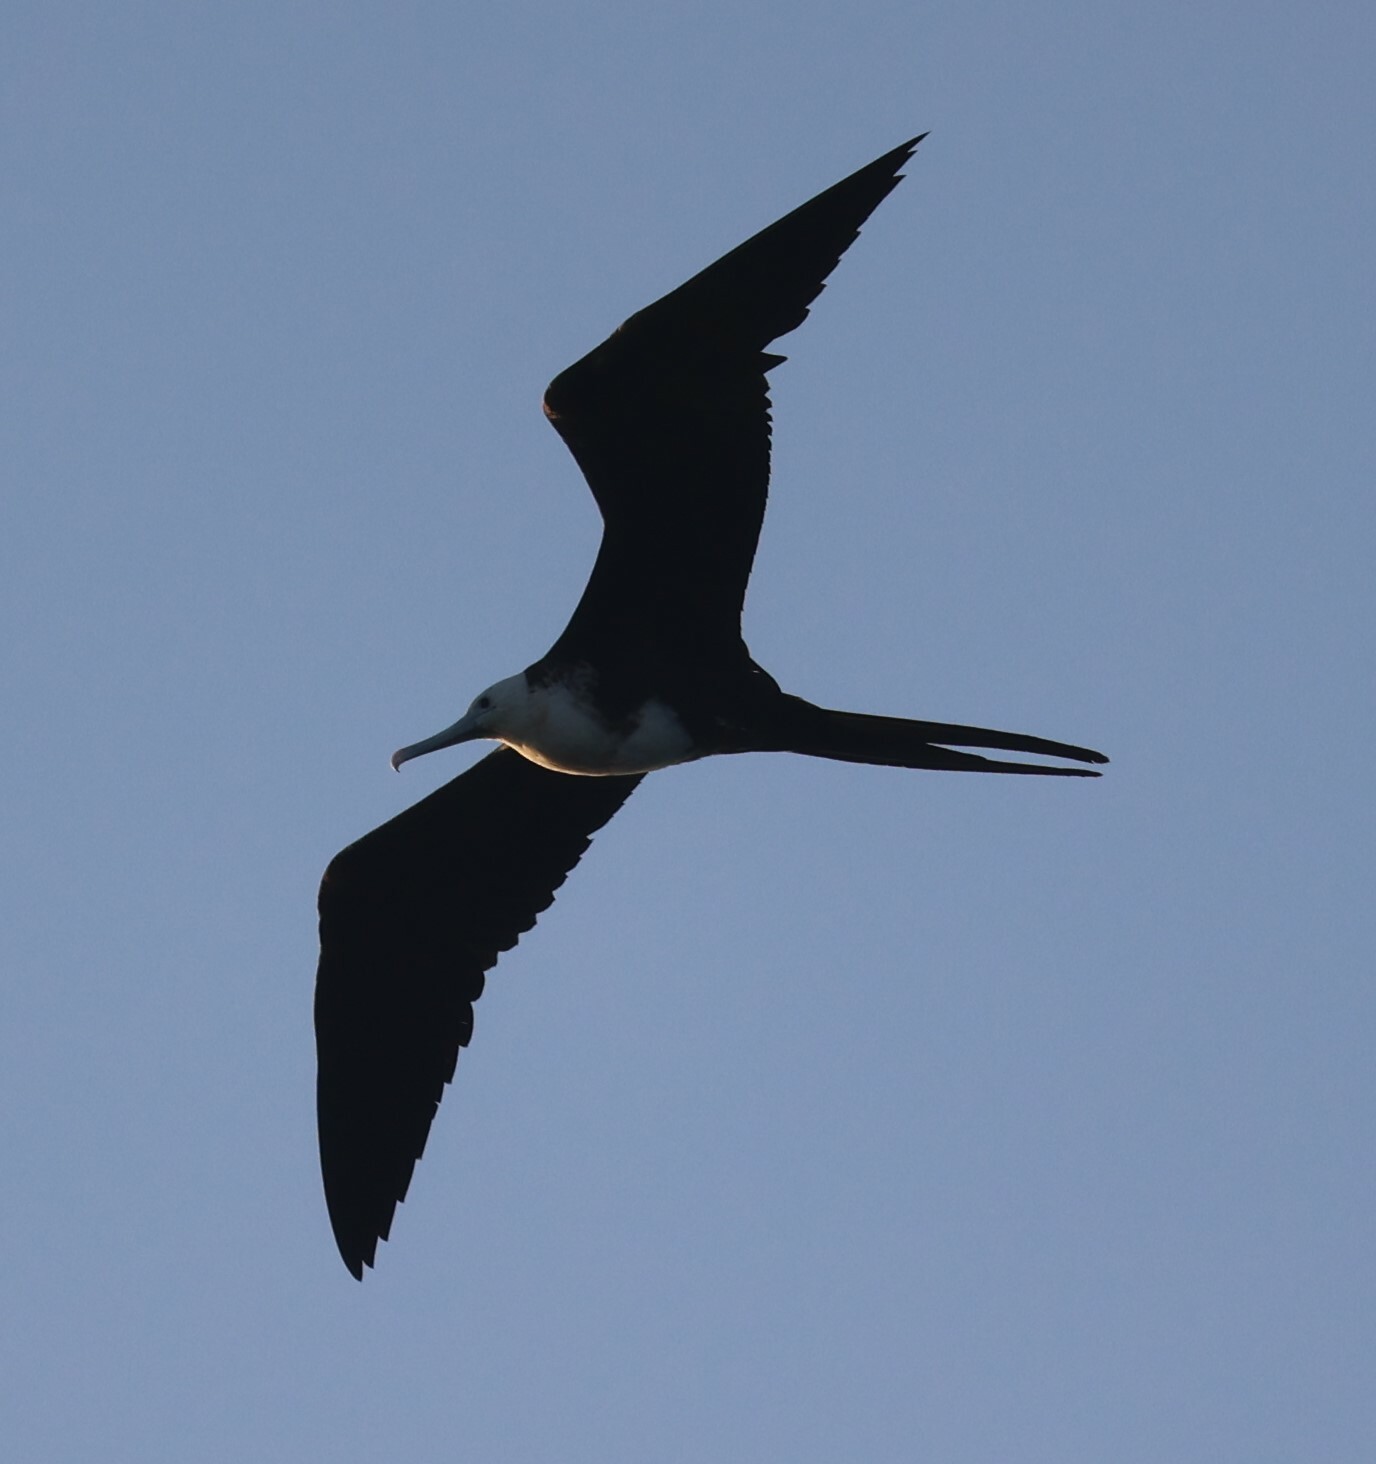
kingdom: Animalia
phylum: Chordata
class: Aves
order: Suliformes
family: Fregatidae
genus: Fregata
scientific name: Fregata magnificens
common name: Magnificent frigatebird
